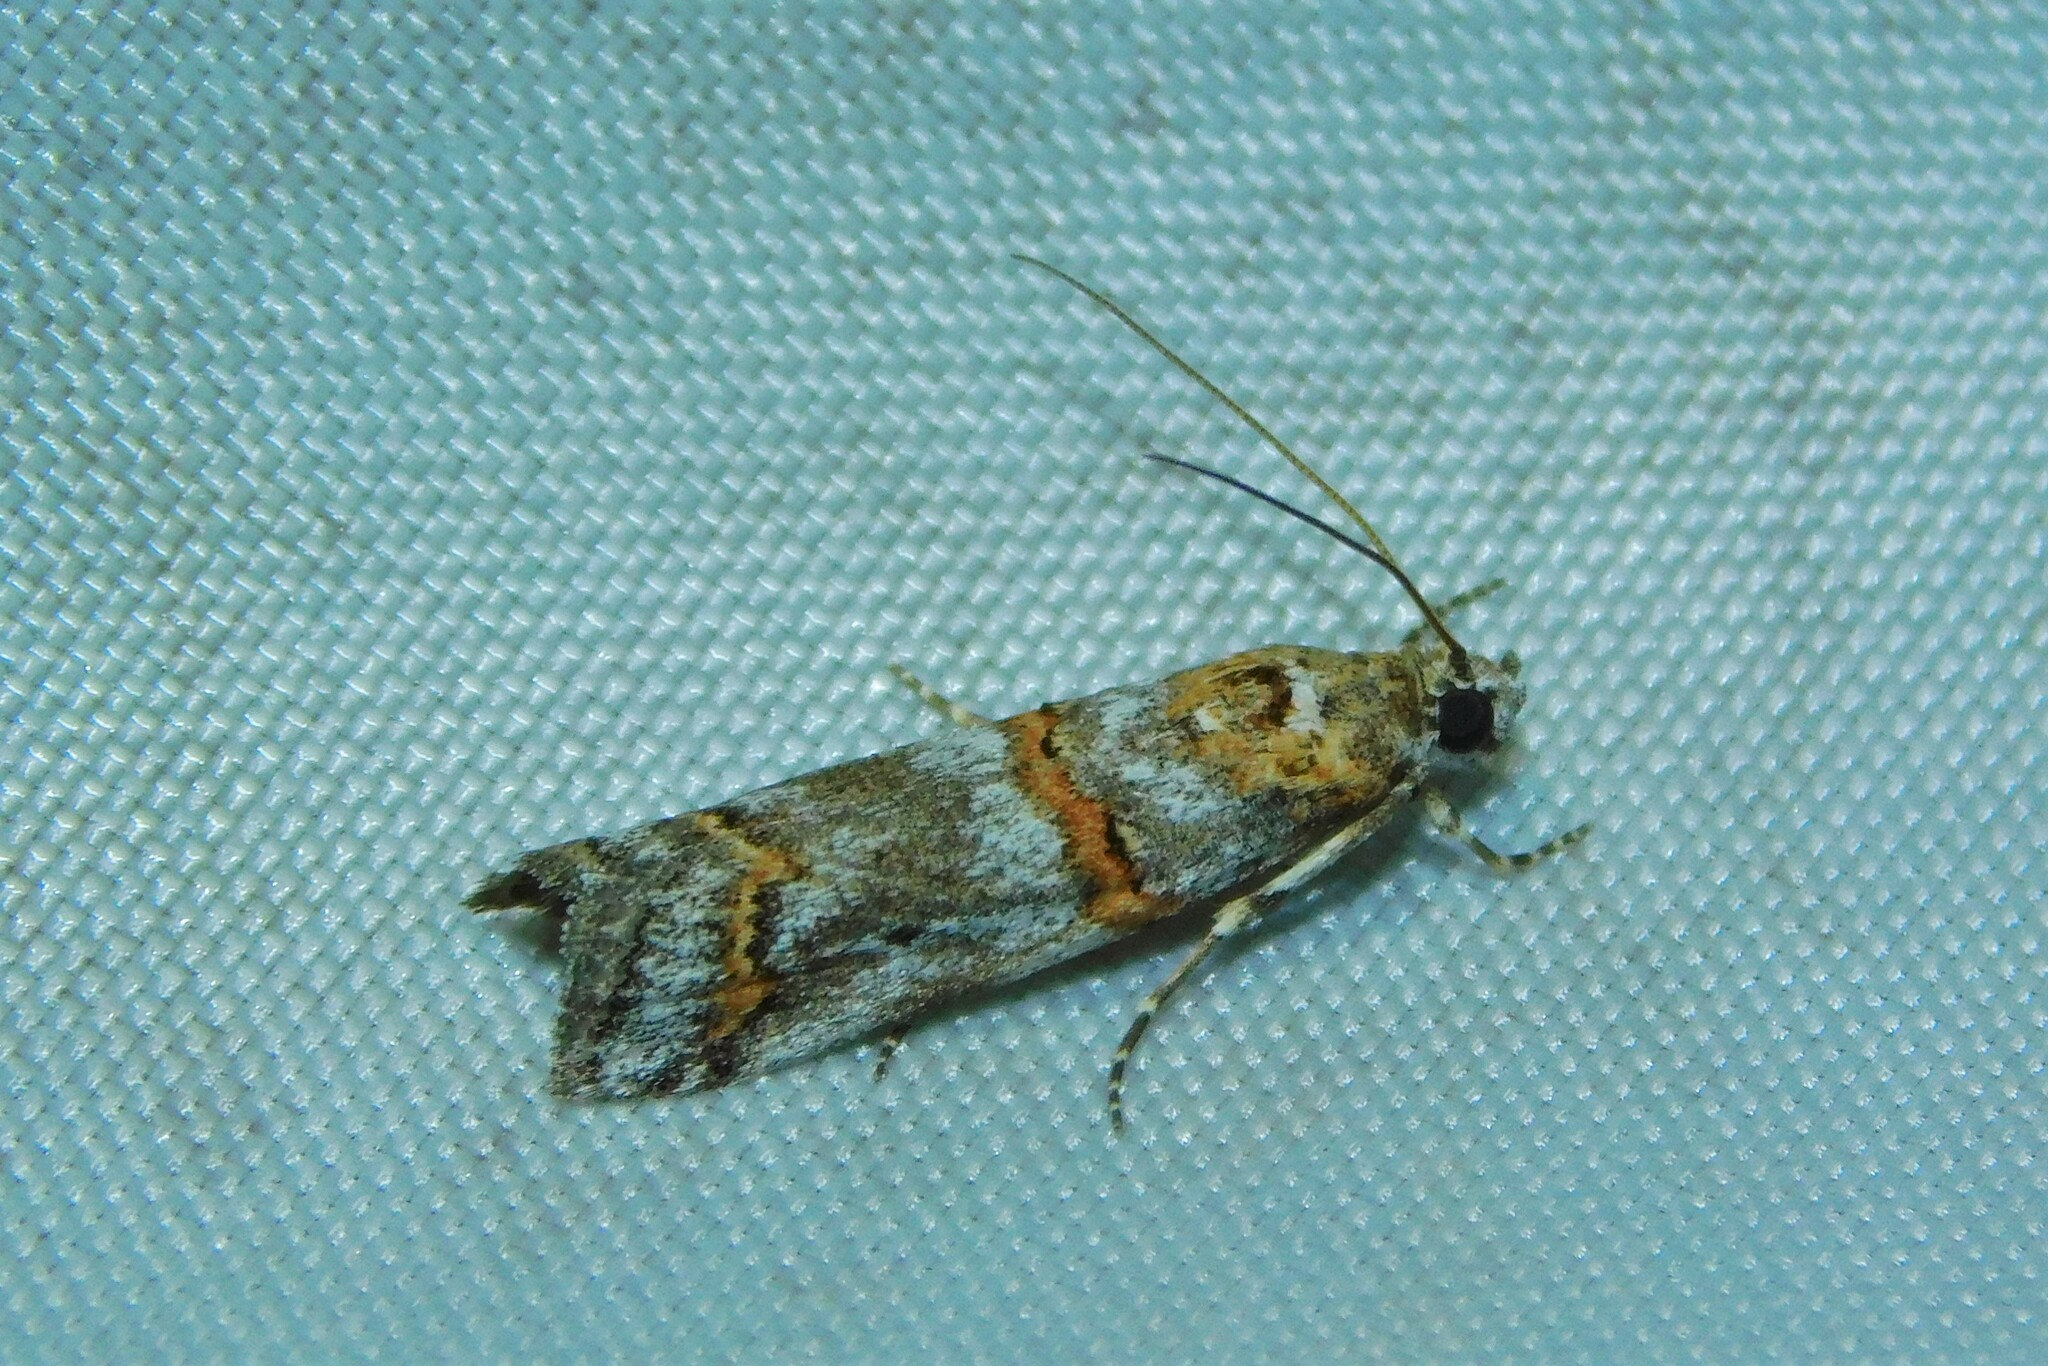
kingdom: Animalia
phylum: Arthropoda
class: Insecta
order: Lepidoptera
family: Pyralidae
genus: Pempelia
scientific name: Pempelia compositella
